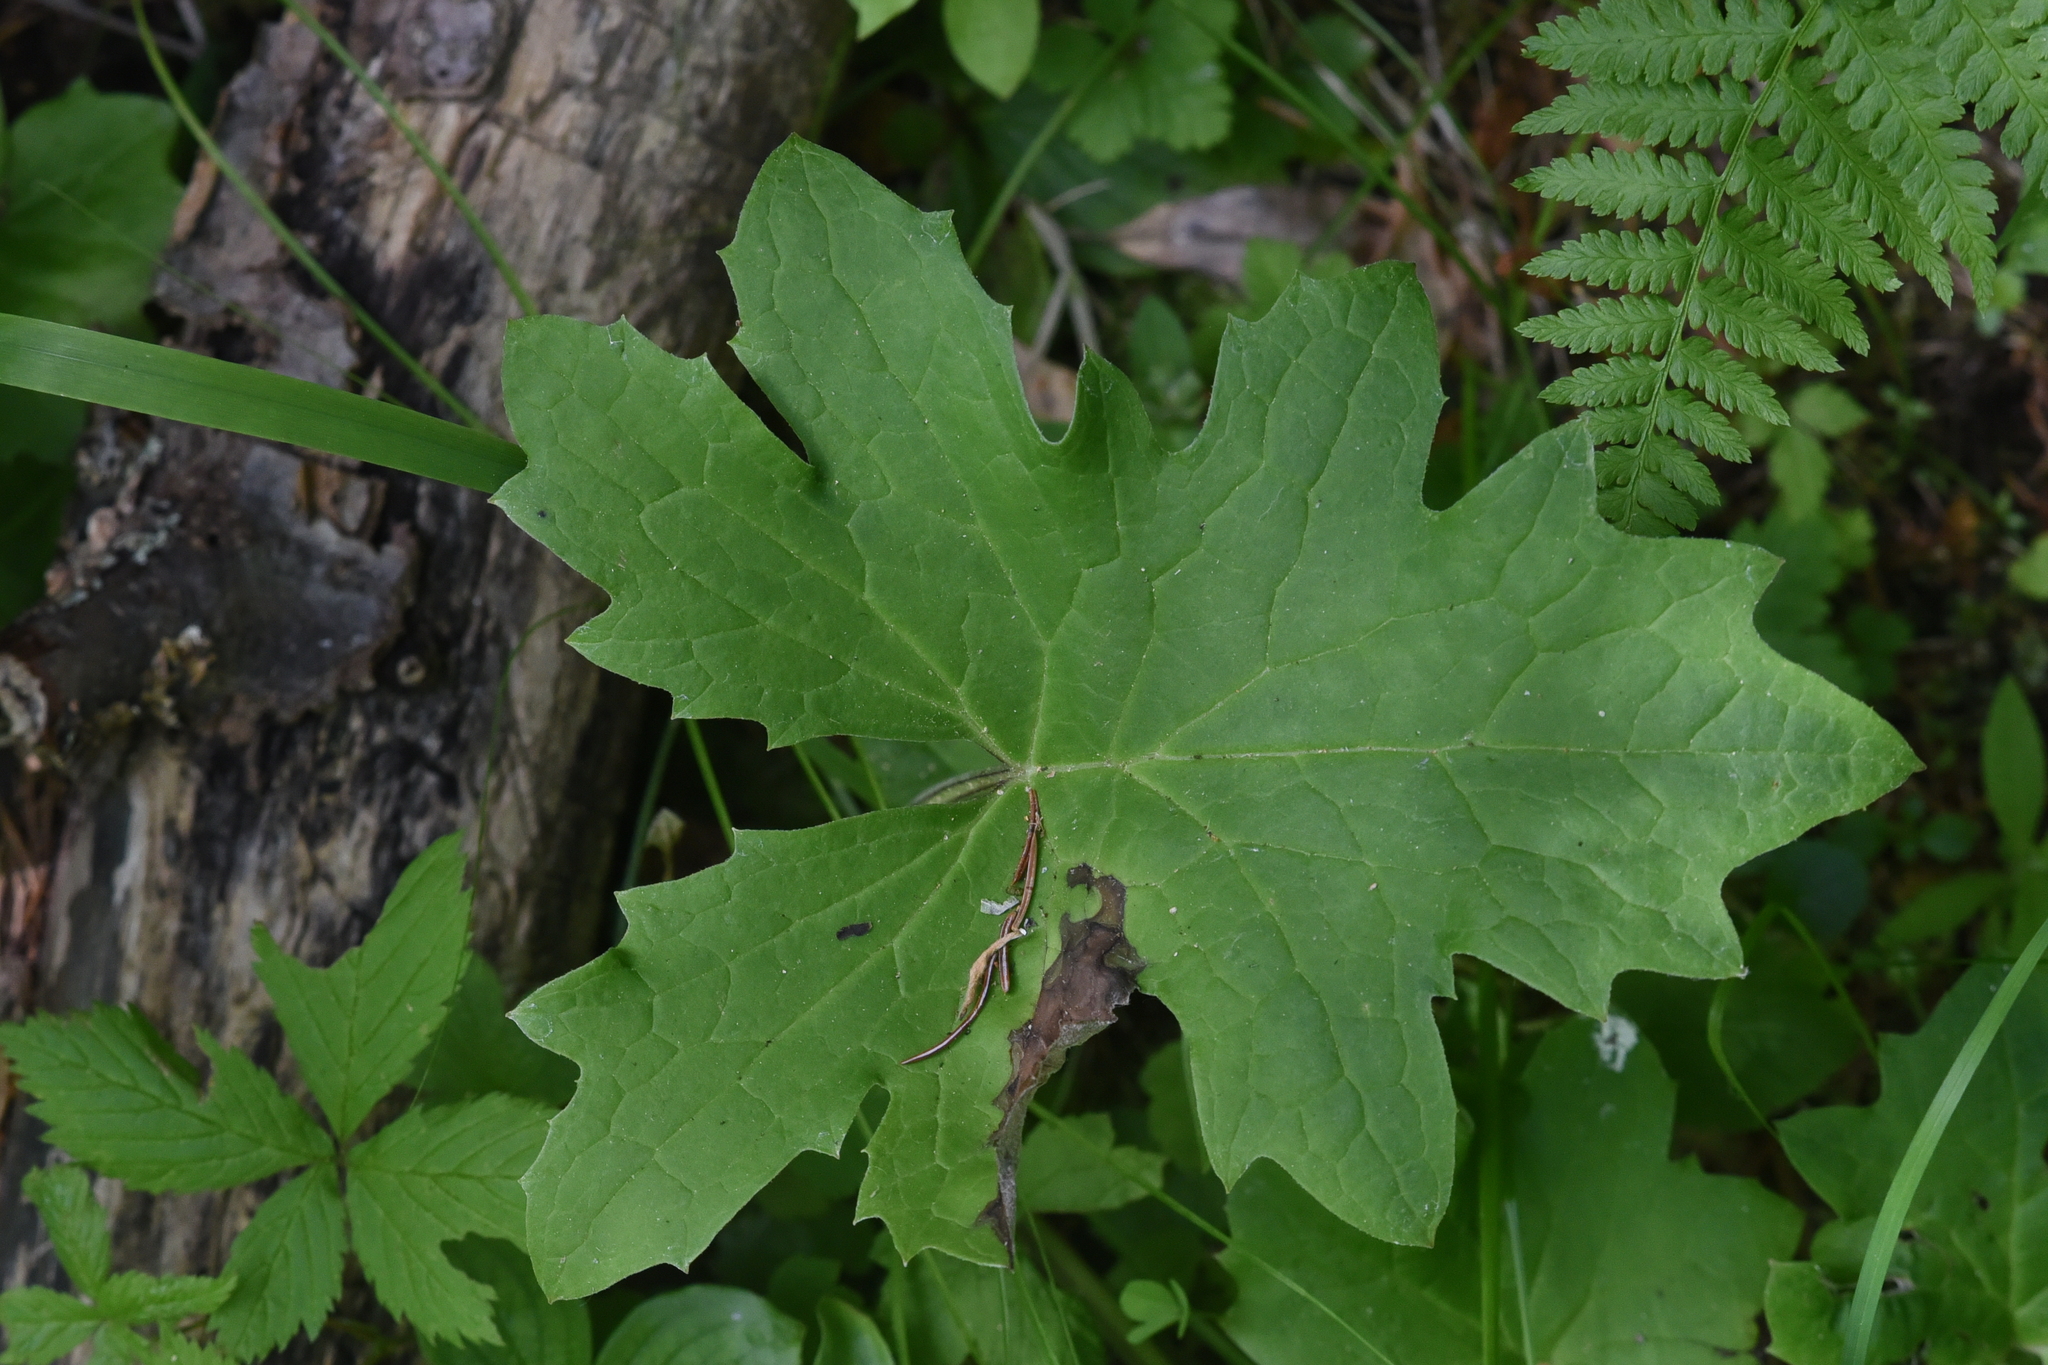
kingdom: Plantae
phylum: Tracheophyta
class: Magnoliopsida
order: Asterales
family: Asteraceae
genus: Petasites
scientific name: Petasites frigidus
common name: Arctic butterbur
